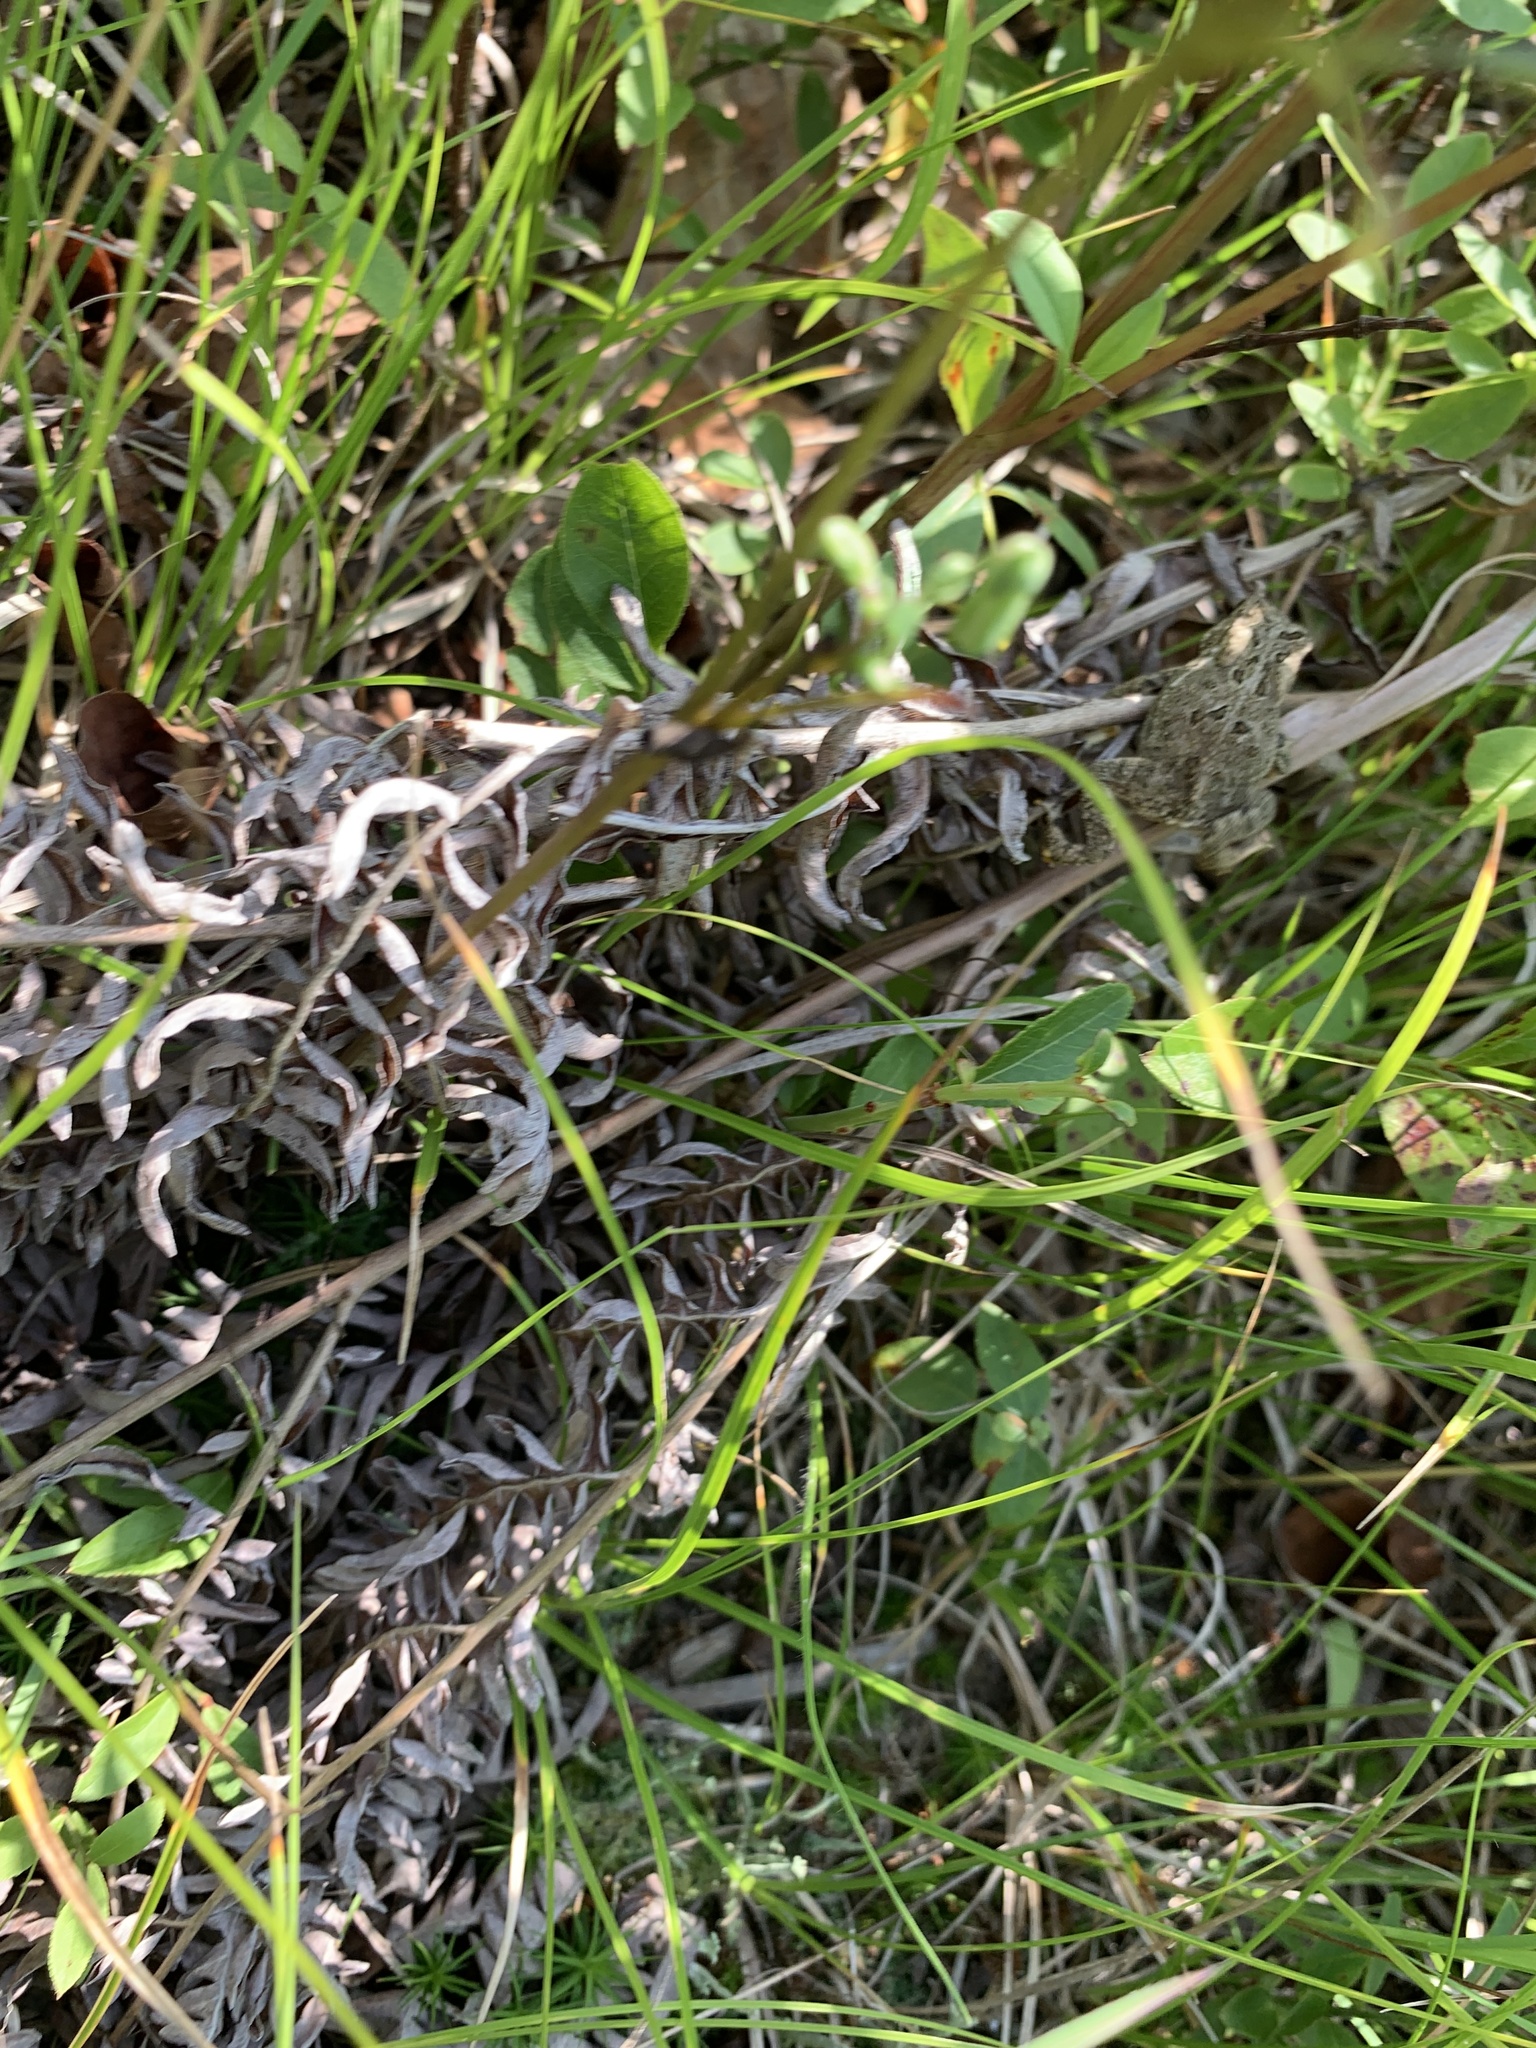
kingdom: Animalia
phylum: Chordata
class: Amphibia
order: Anura
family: Bufonidae
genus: Anaxyrus
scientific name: Anaxyrus americanus
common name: American toad
